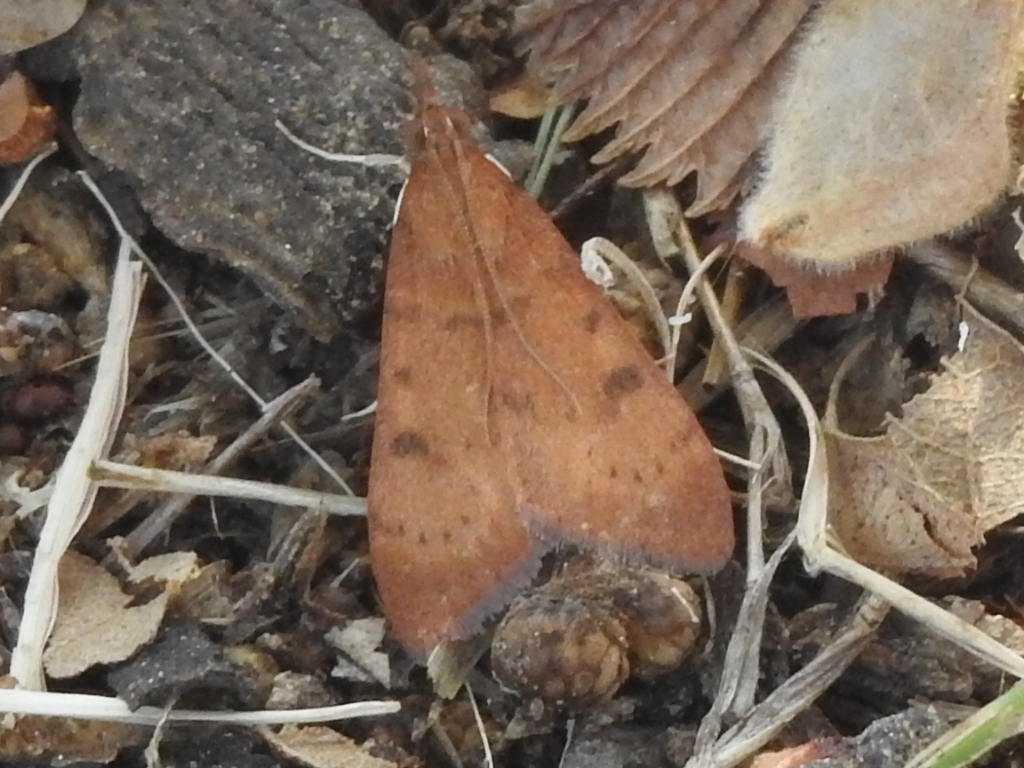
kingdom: Animalia
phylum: Arthropoda
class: Insecta
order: Lepidoptera
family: Crambidae
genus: Uresiphita
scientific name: Uresiphita reversalis
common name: Genista broom moth
